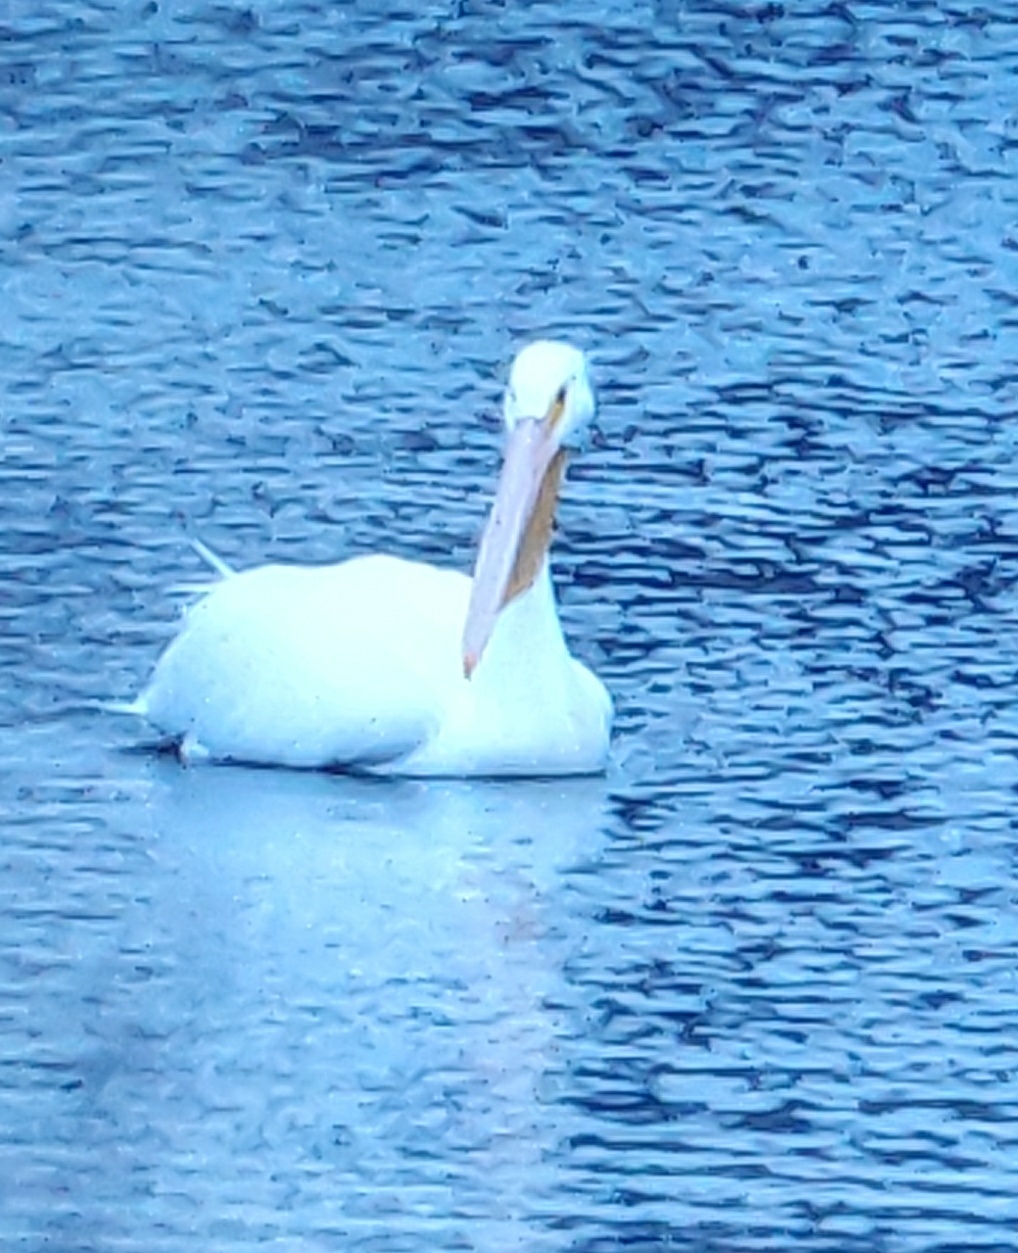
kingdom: Animalia
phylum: Chordata
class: Aves
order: Pelecaniformes
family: Pelecanidae
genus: Pelecanus
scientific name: Pelecanus erythrorhynchos
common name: American white pelican
